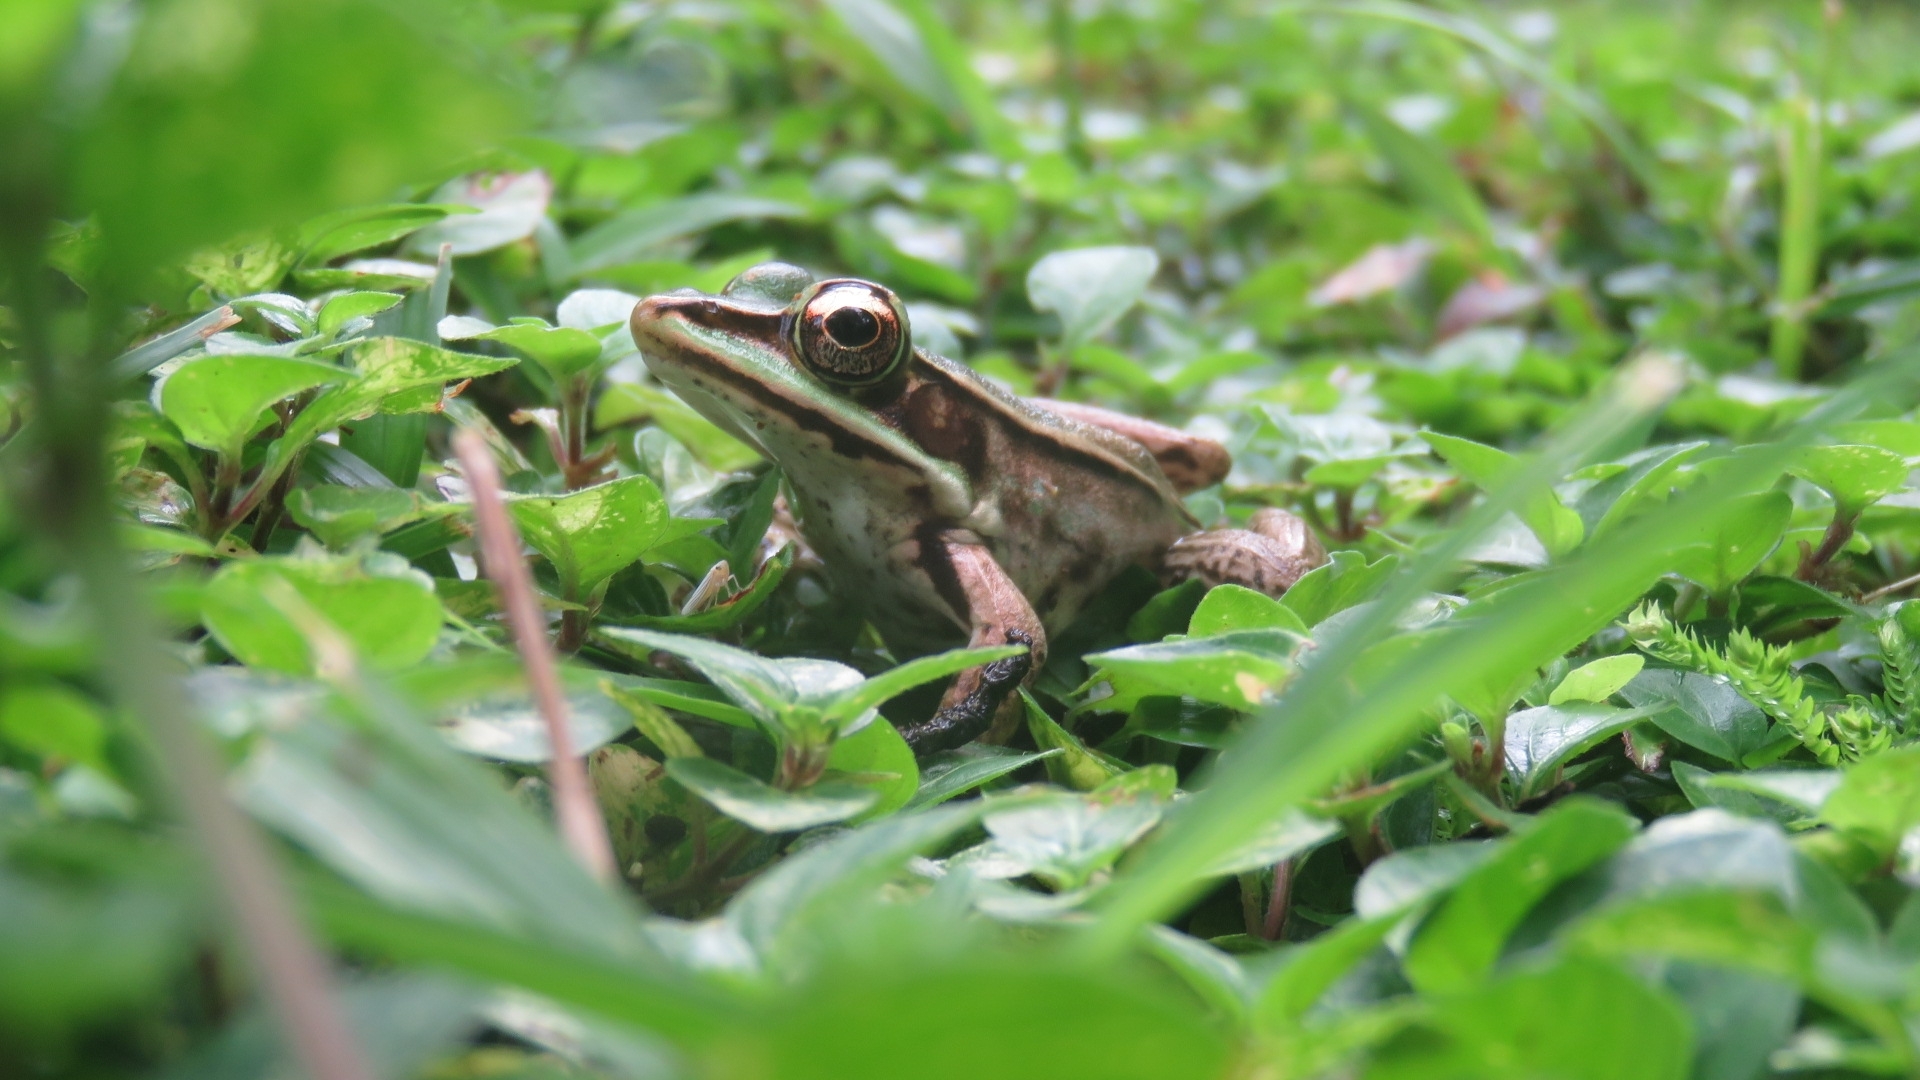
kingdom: Animalia
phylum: Chordata
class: Amphibia
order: Anura
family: Ranidae
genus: Lithobates
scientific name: Lithobates vaillanti
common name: Vaillant's frog
